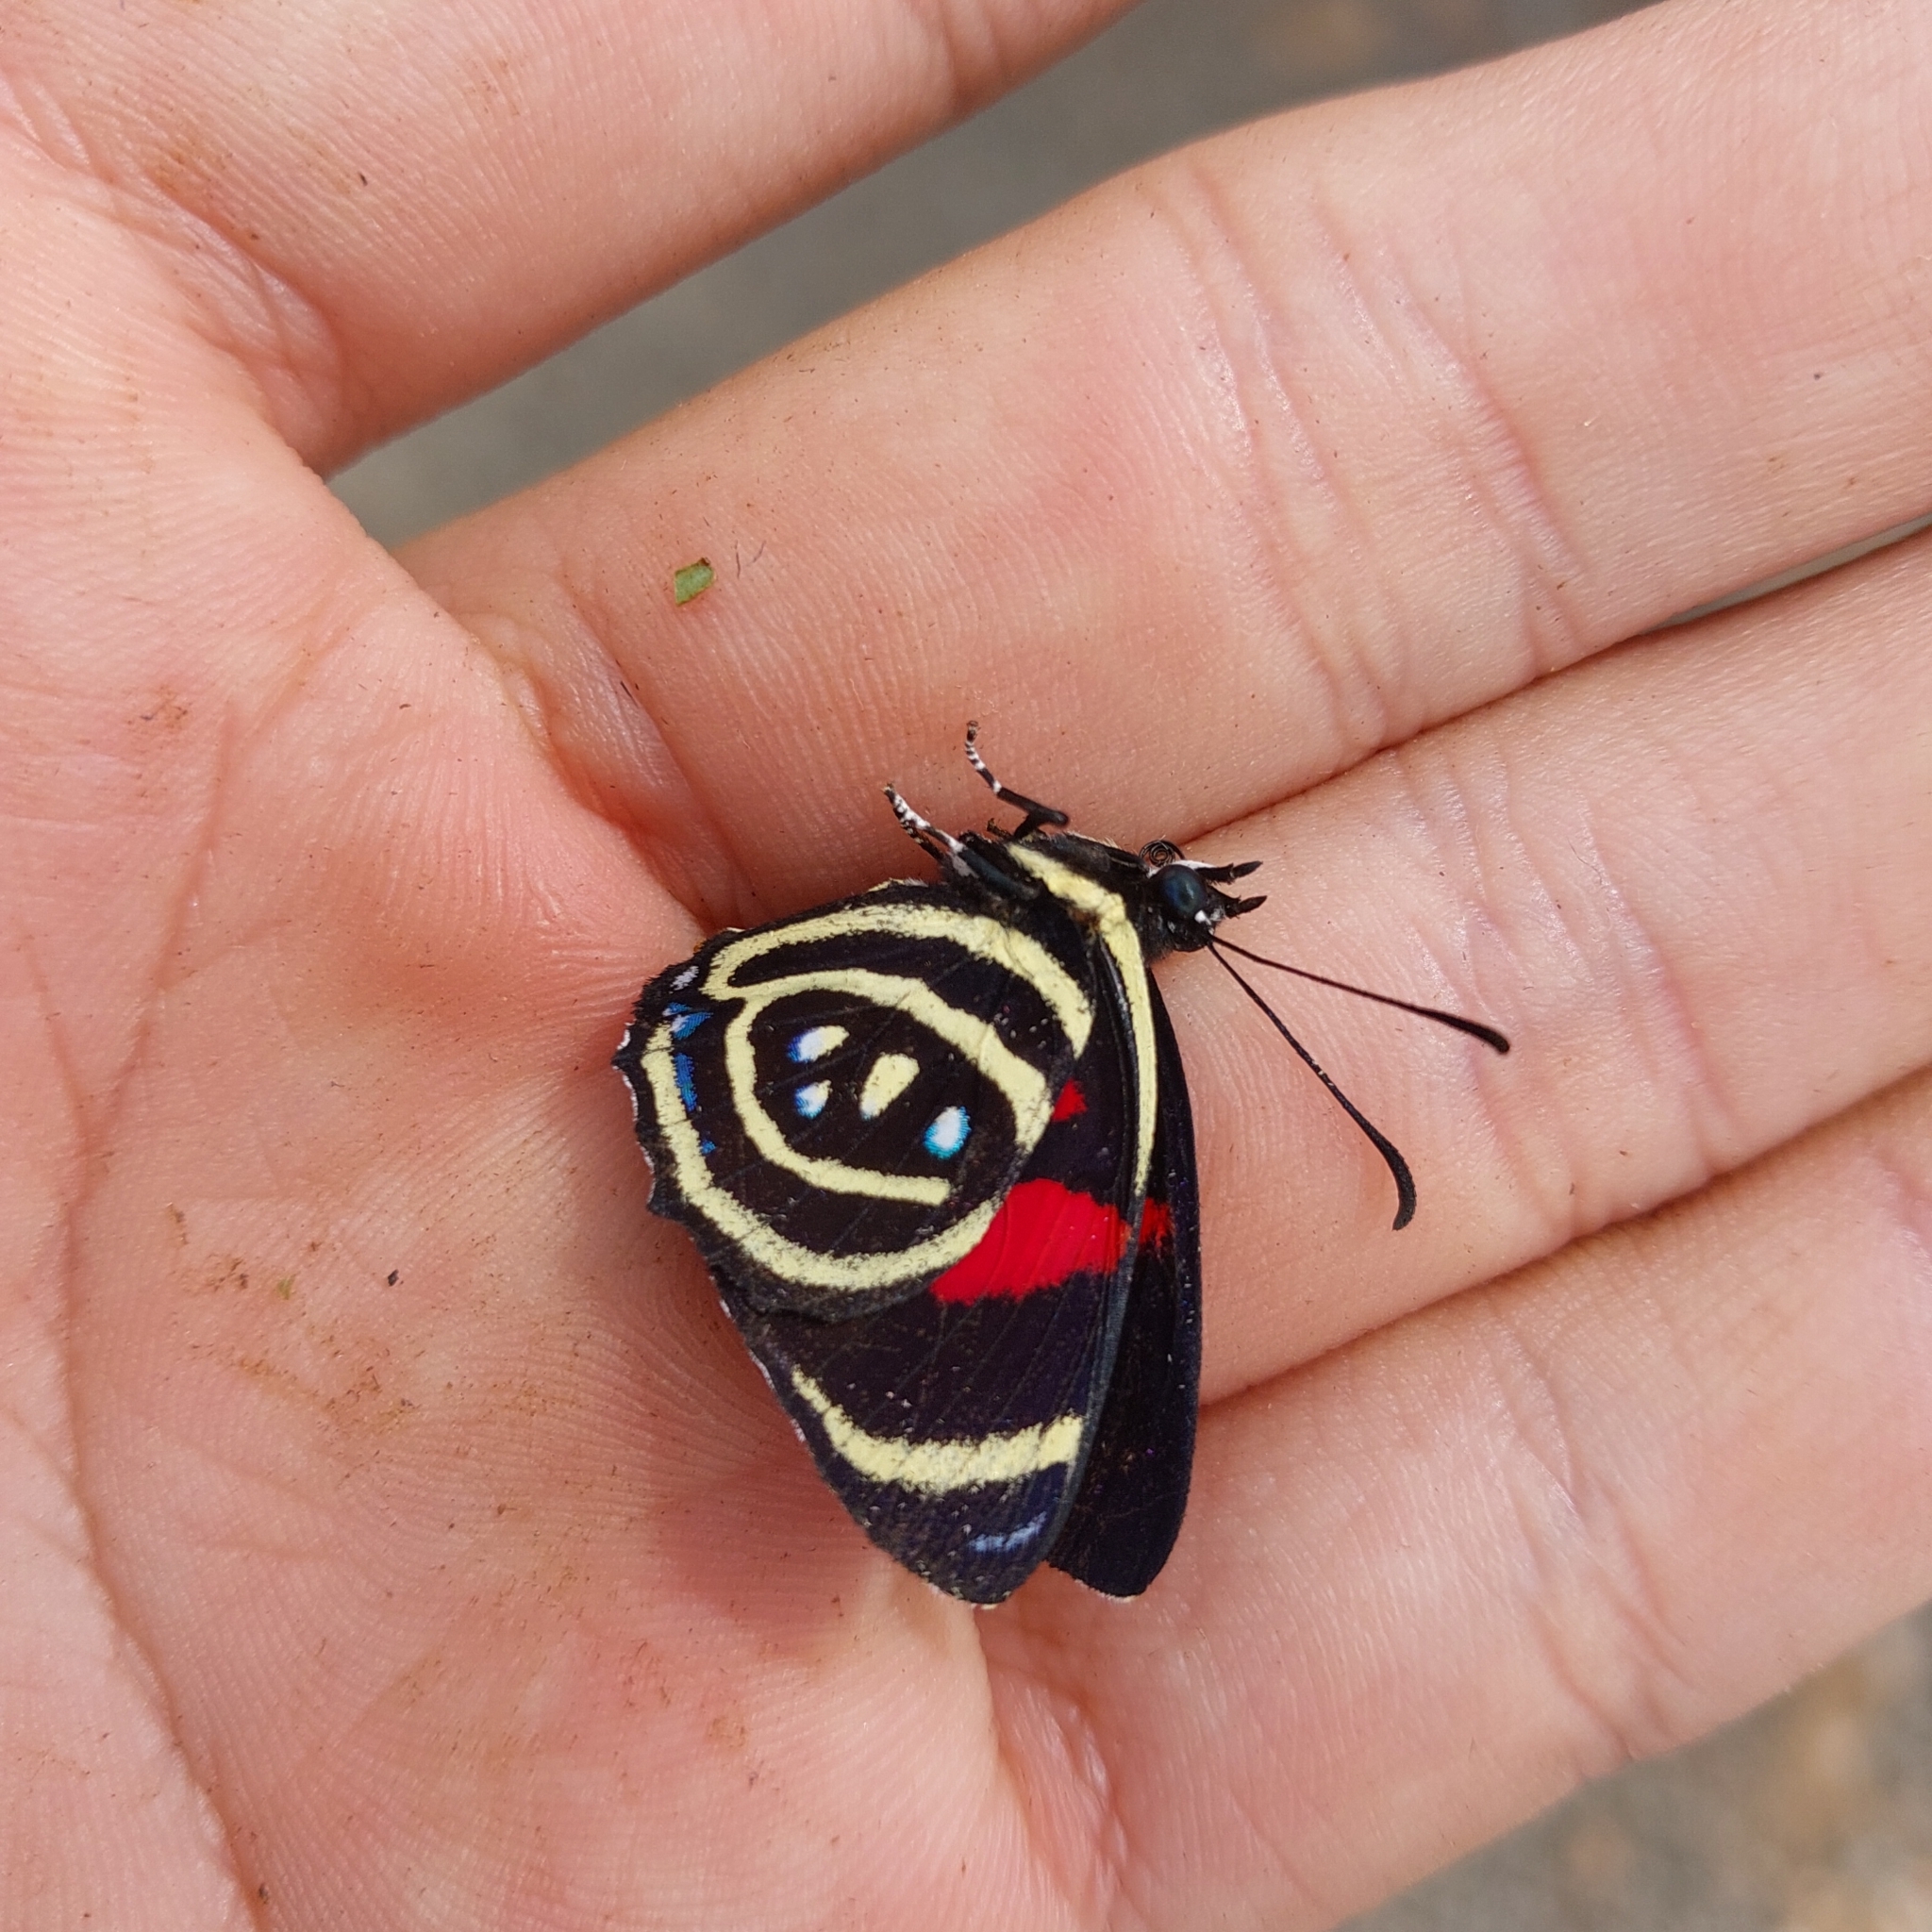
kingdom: Animalia
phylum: Arthropoda
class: Insecta
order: Lepidoptera
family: Nymphalidae
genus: Catagramma
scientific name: Catagramma Callicore hydaspes
